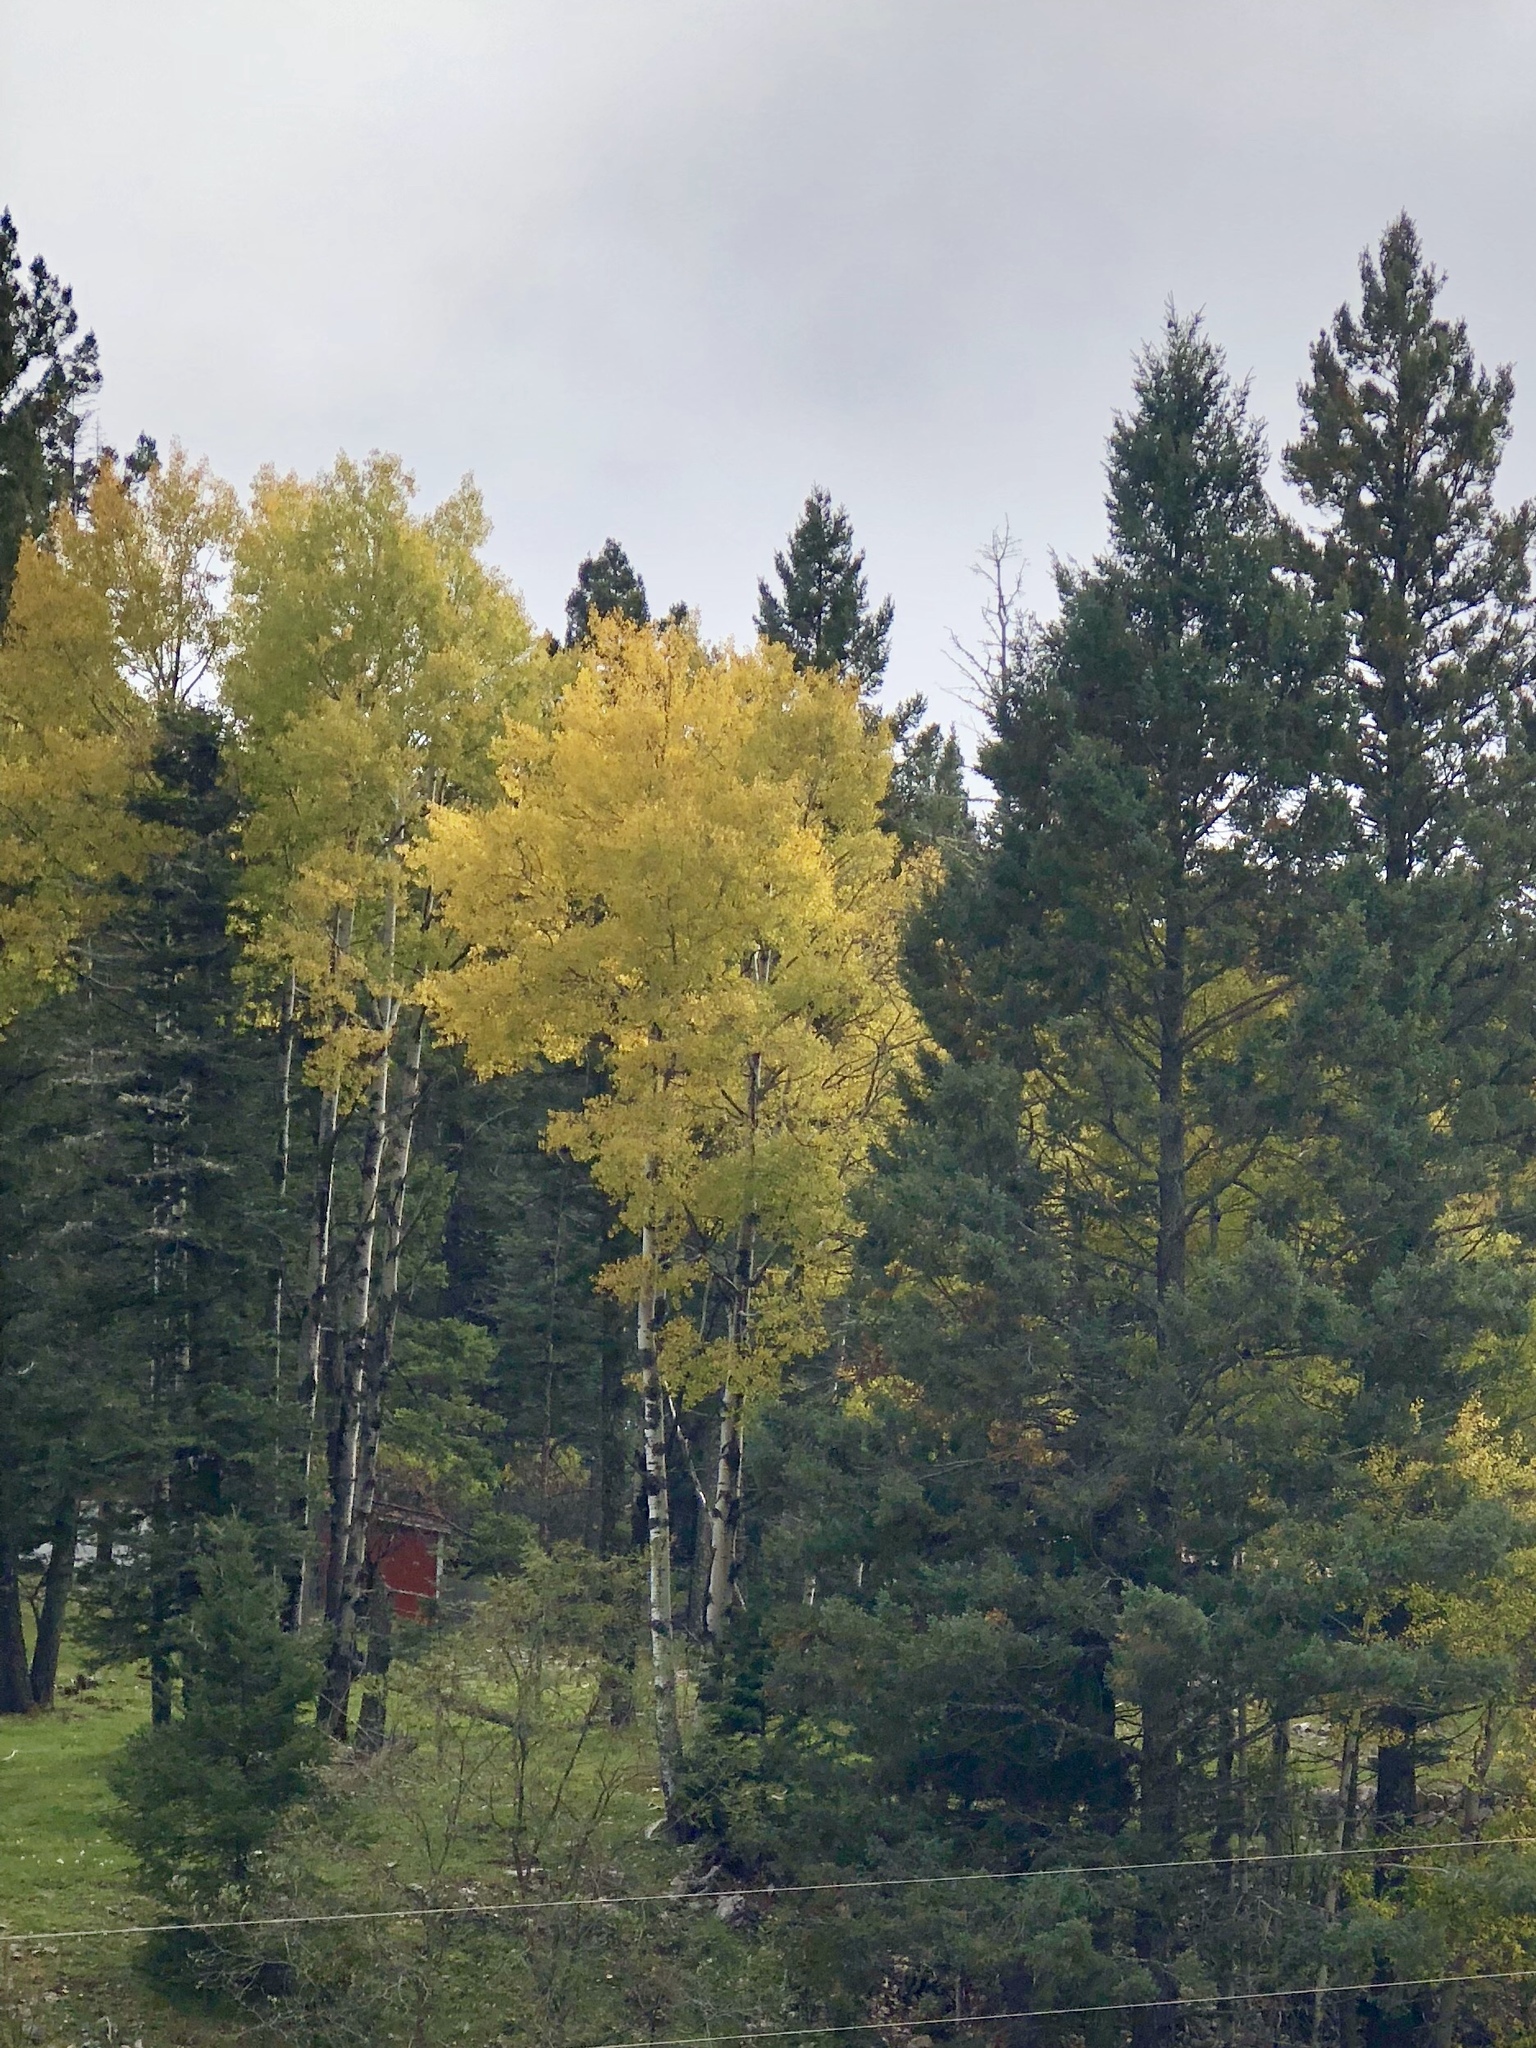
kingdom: Plantae
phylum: Tracheophyta
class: Magnoliopsida
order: Malpighiales
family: Salicaceae
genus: Populus
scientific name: Populus tremuloides
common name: Quaking aspen
